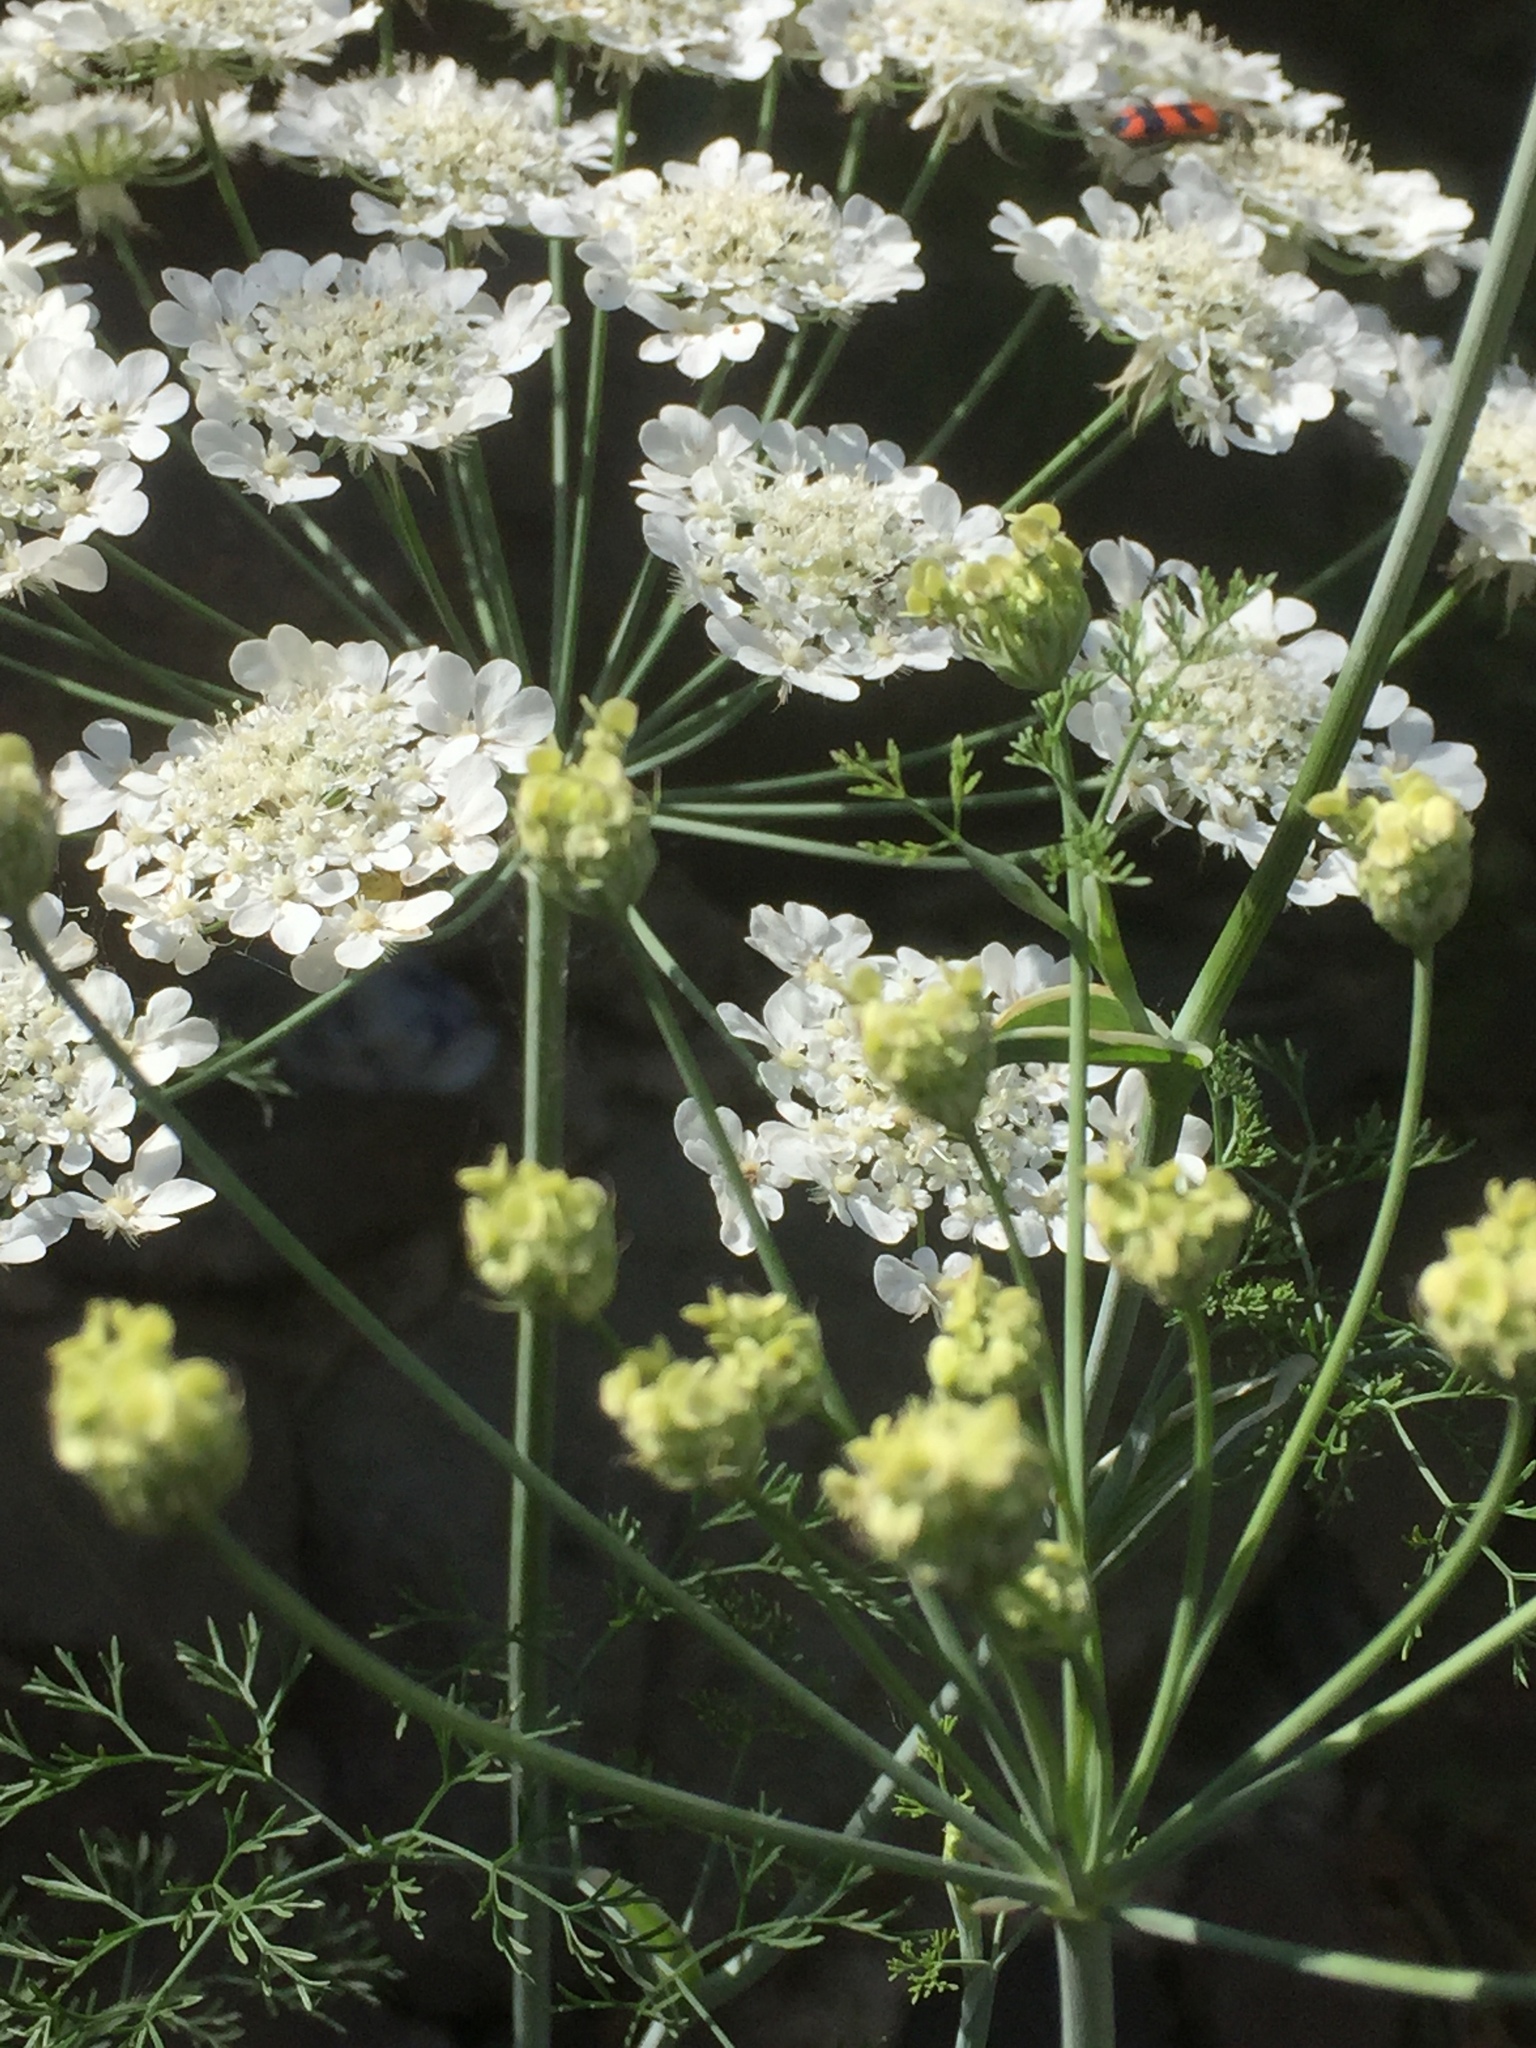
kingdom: Plantae
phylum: Tracheophyta
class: Magnoliopsida
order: Apiales
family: Apiaceae
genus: Foeniculum
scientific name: Foeniculum vulgare
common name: Fennel
